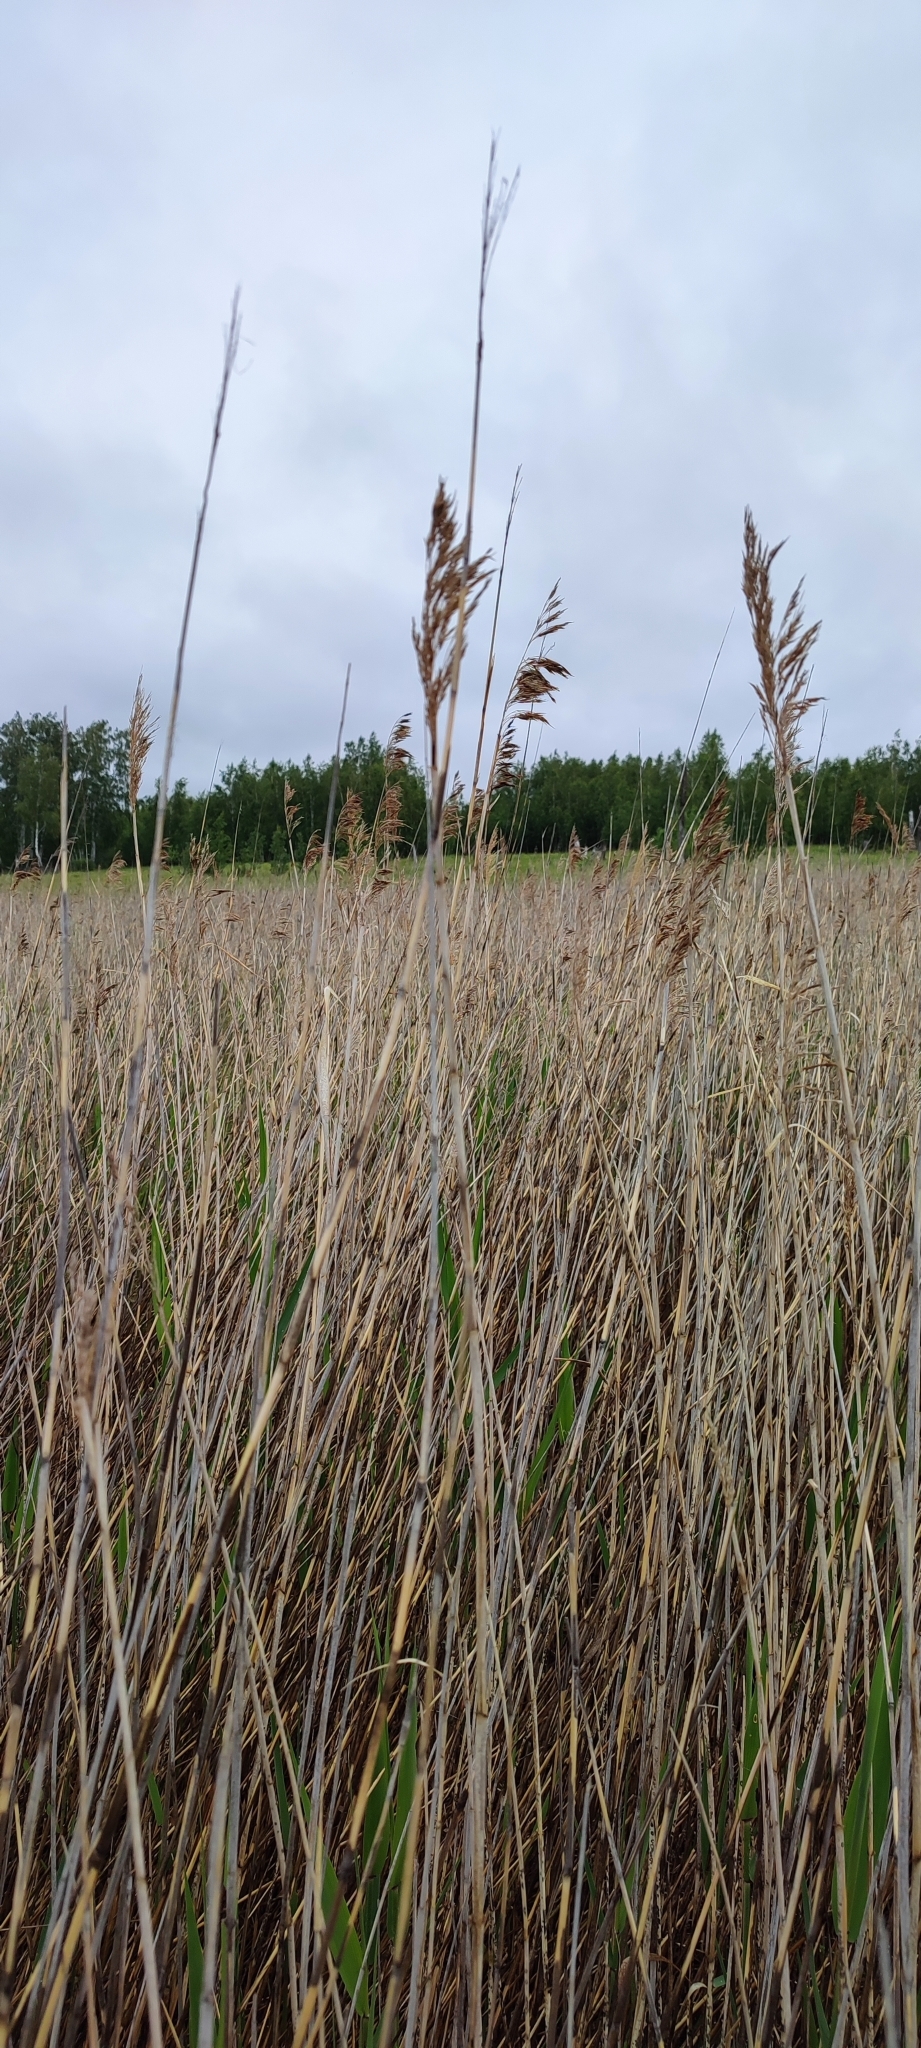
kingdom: Plantae
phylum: Tracheophyta
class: Liliopsida
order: Poales
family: Poaceae
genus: Phragmites
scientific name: Phragmites australis
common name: Common reed
